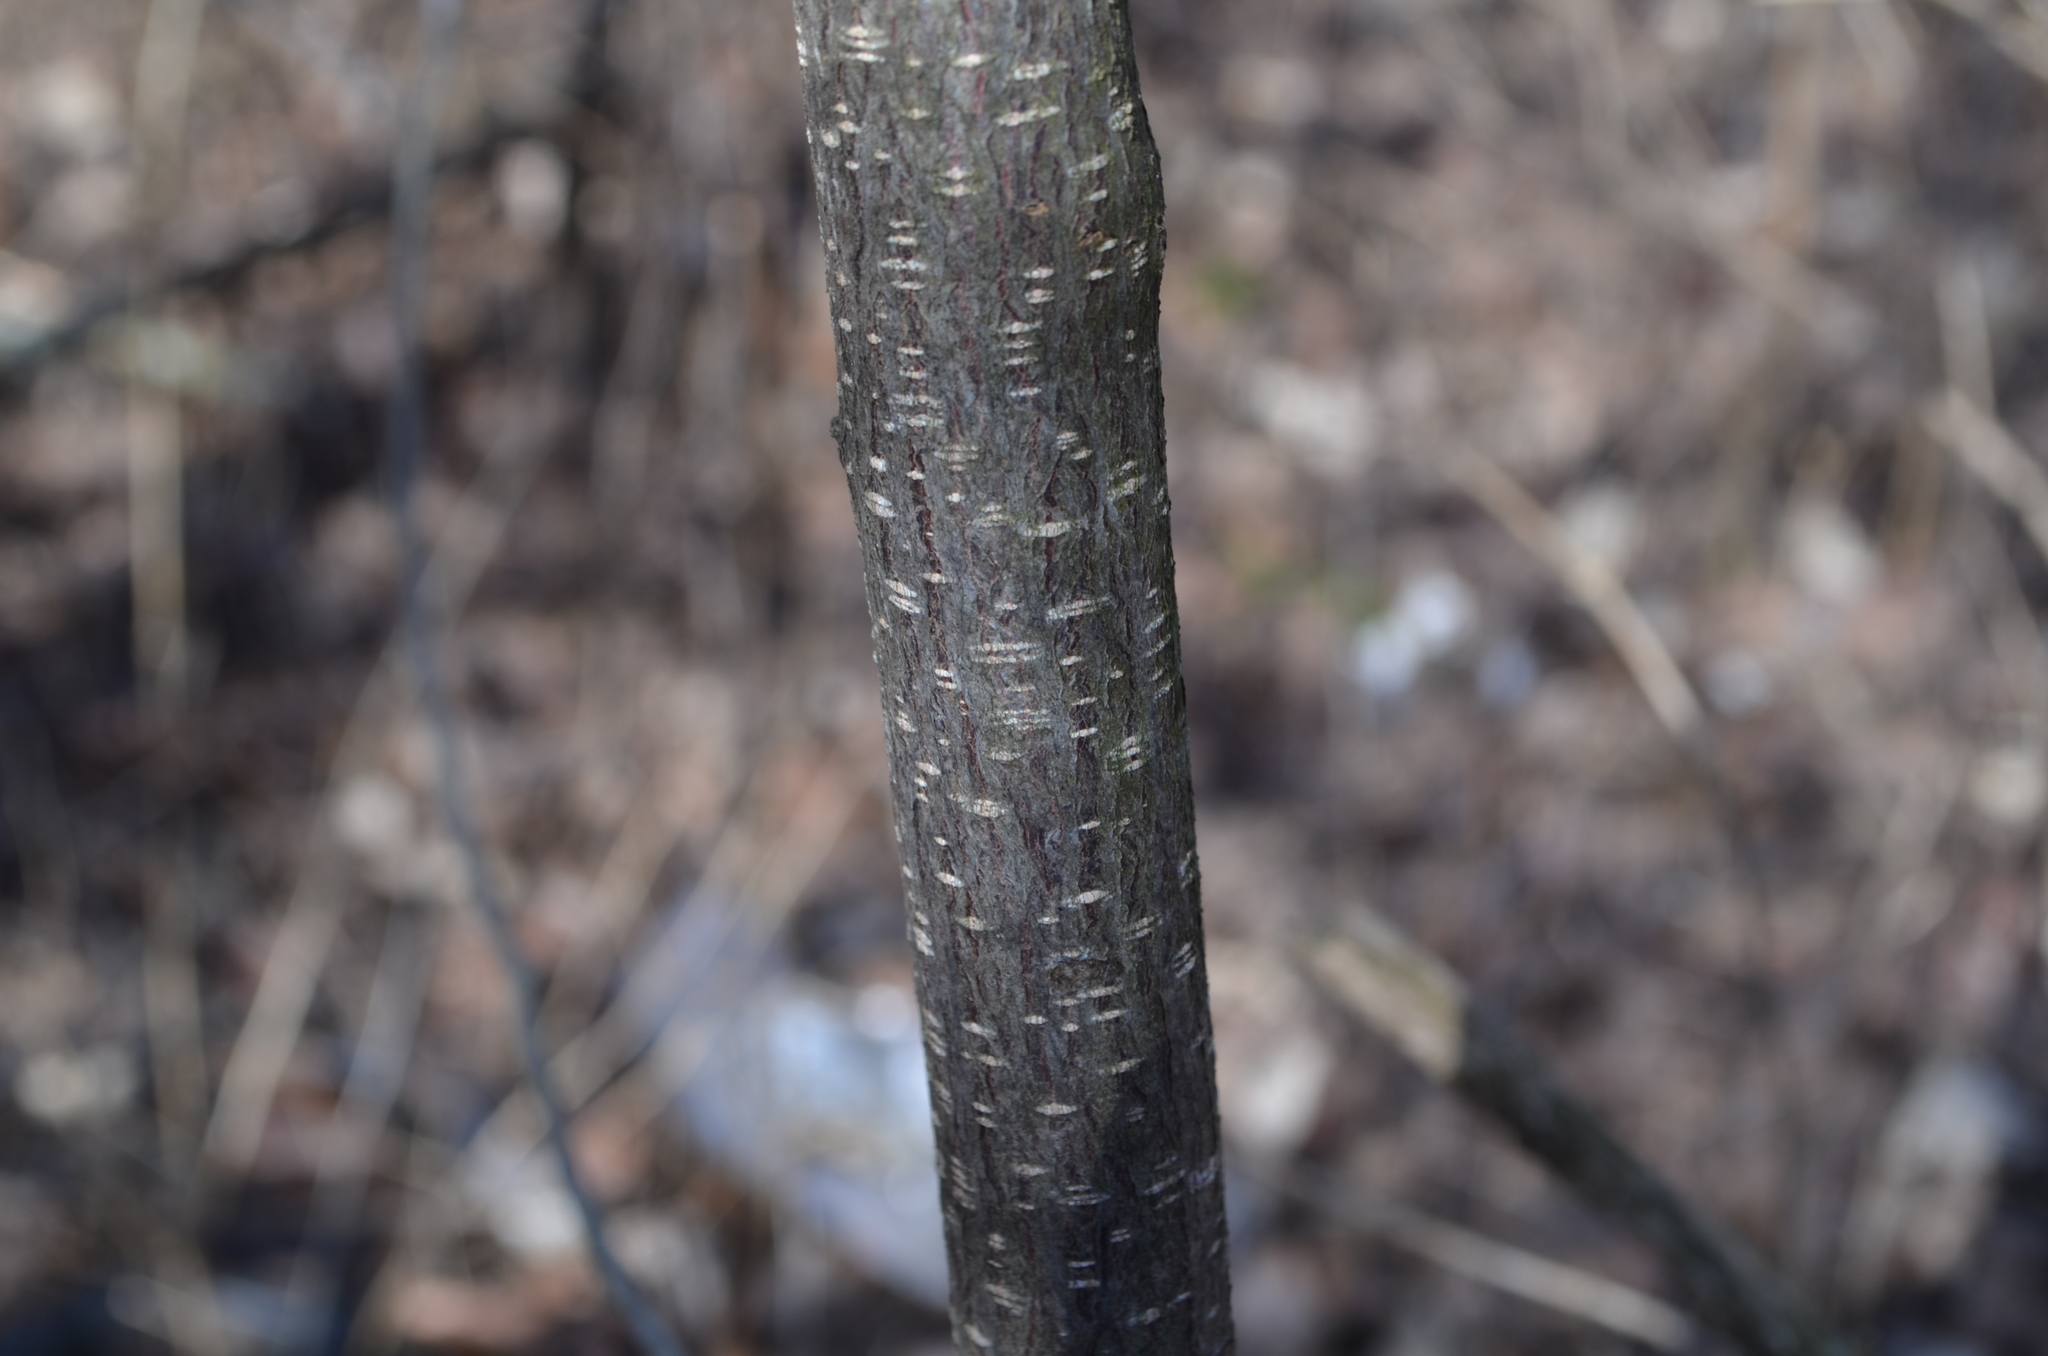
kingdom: Plantae
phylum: Tracheophyta
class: Magnoliopsida
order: Rosales
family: Rhamnaceae
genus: Frangula
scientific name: Frangula alnus
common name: Alder buckthorn
